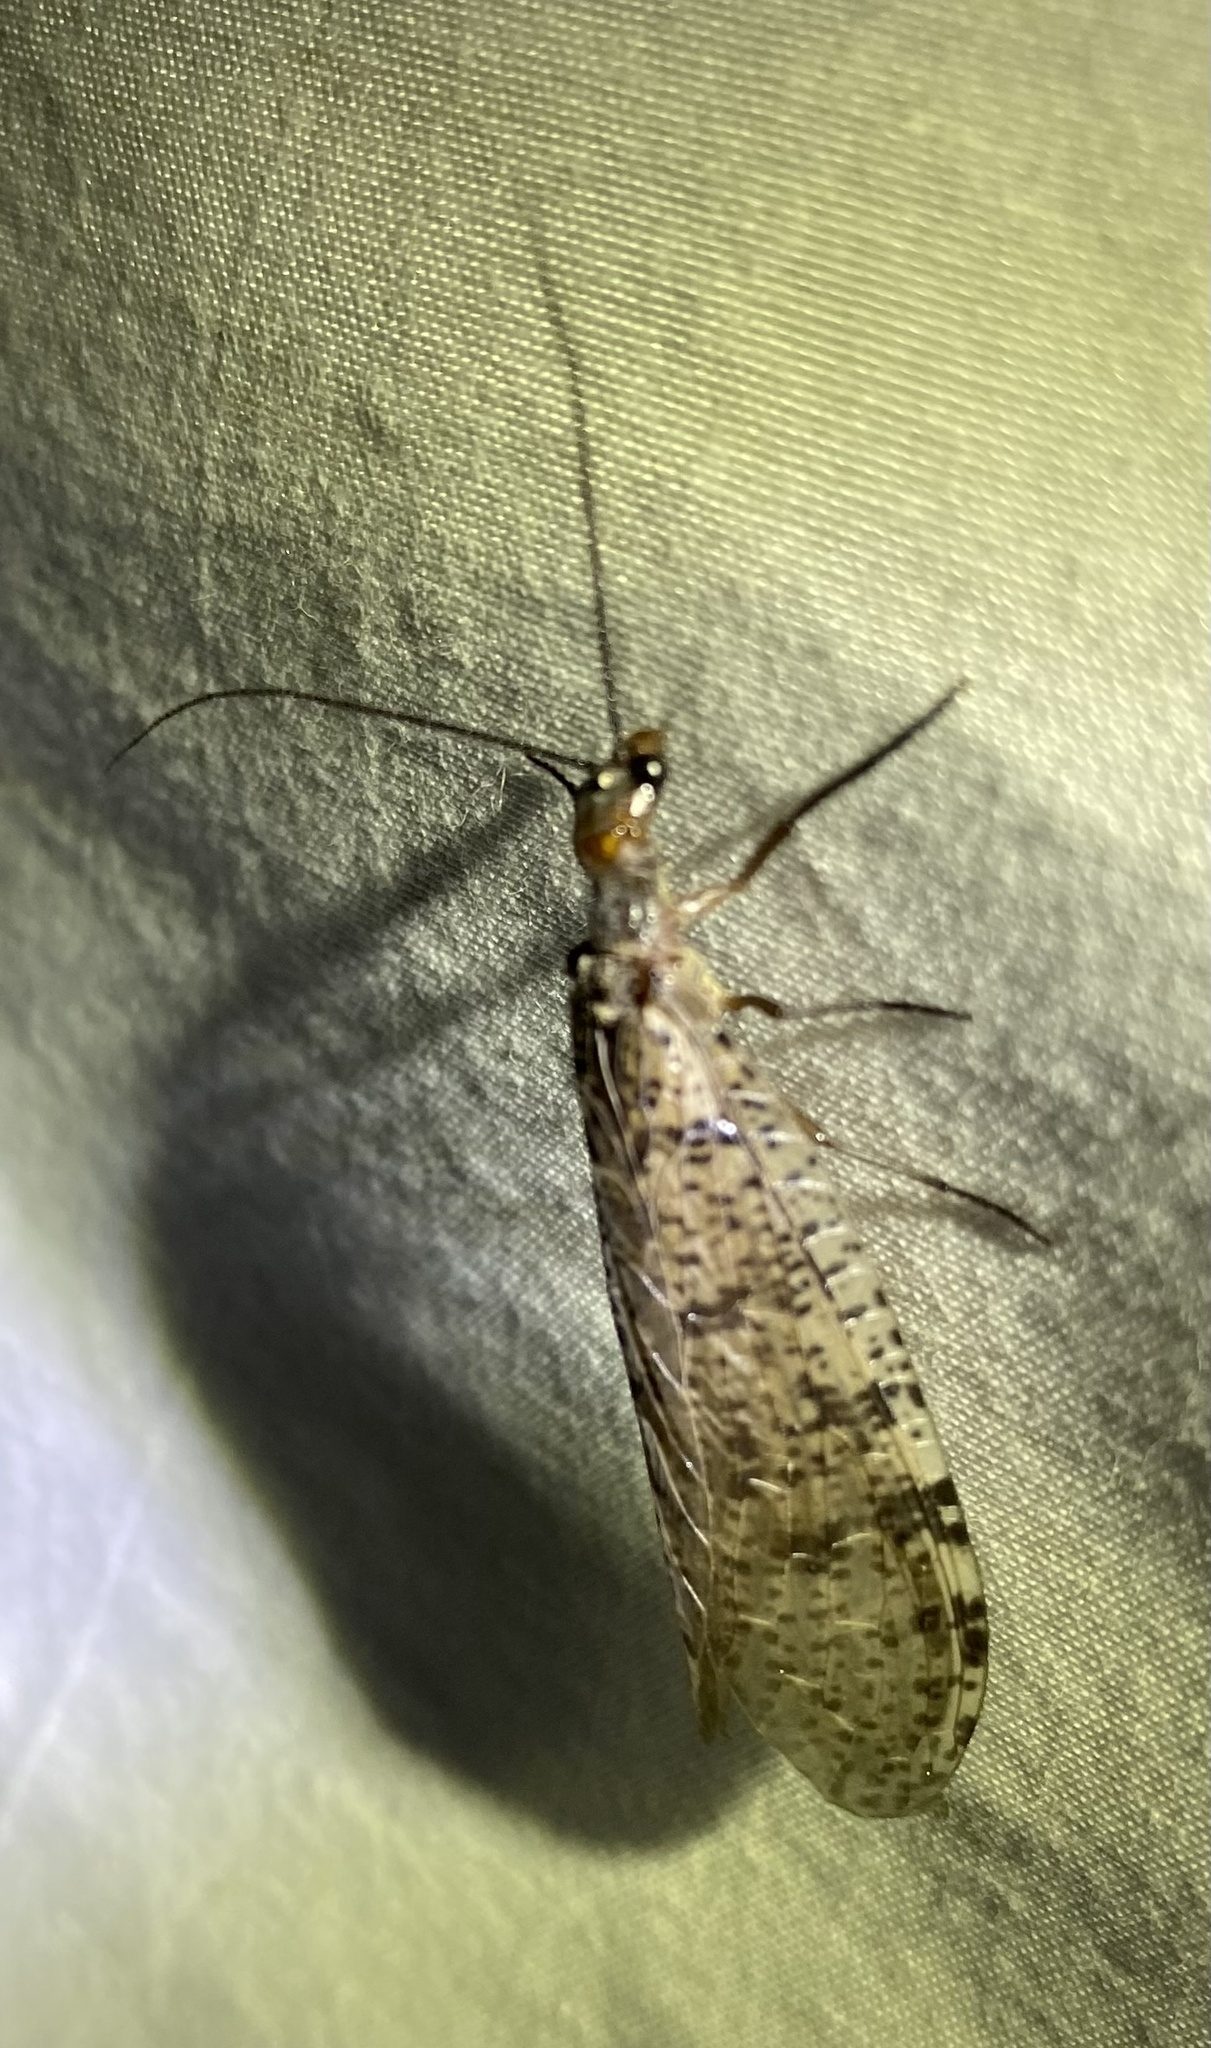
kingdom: Animalia
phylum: Arthropoda
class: Insecta
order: Megaloptera
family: Corydalidae
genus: Neohermes
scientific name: Neohermes concolor
